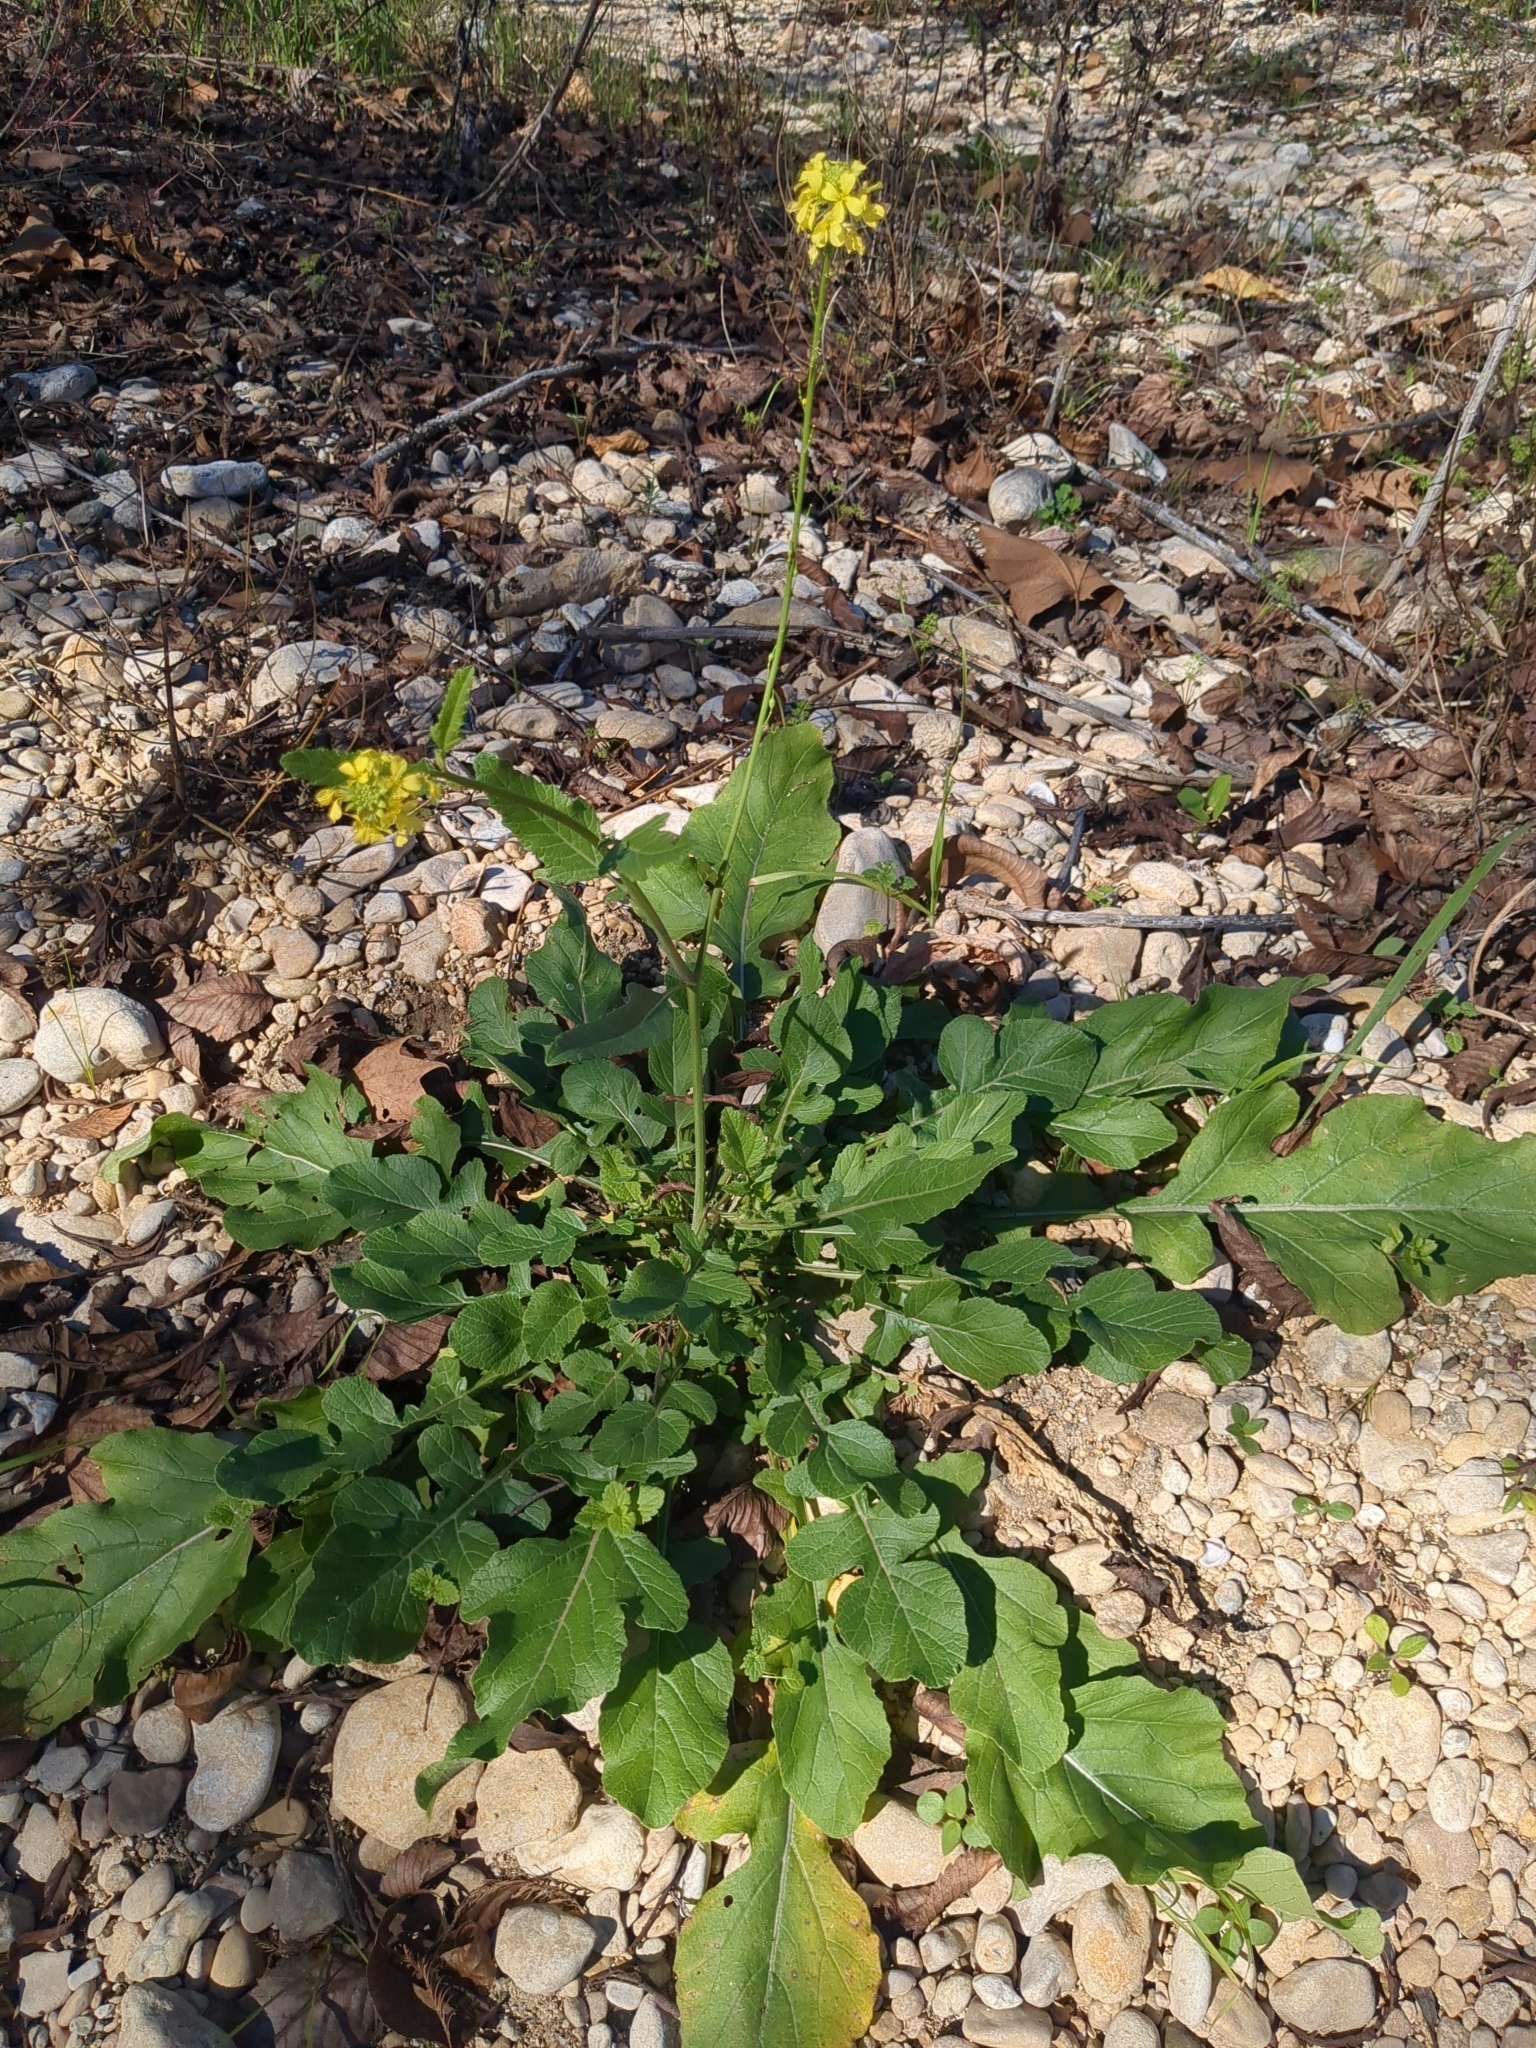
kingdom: Plantae
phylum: Tracheophyta
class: Magnoliopsida
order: Brassicales
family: Brassicaceae
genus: Rapistrum
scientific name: Rapistrum rugosum
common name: Annual bastardcabbage
